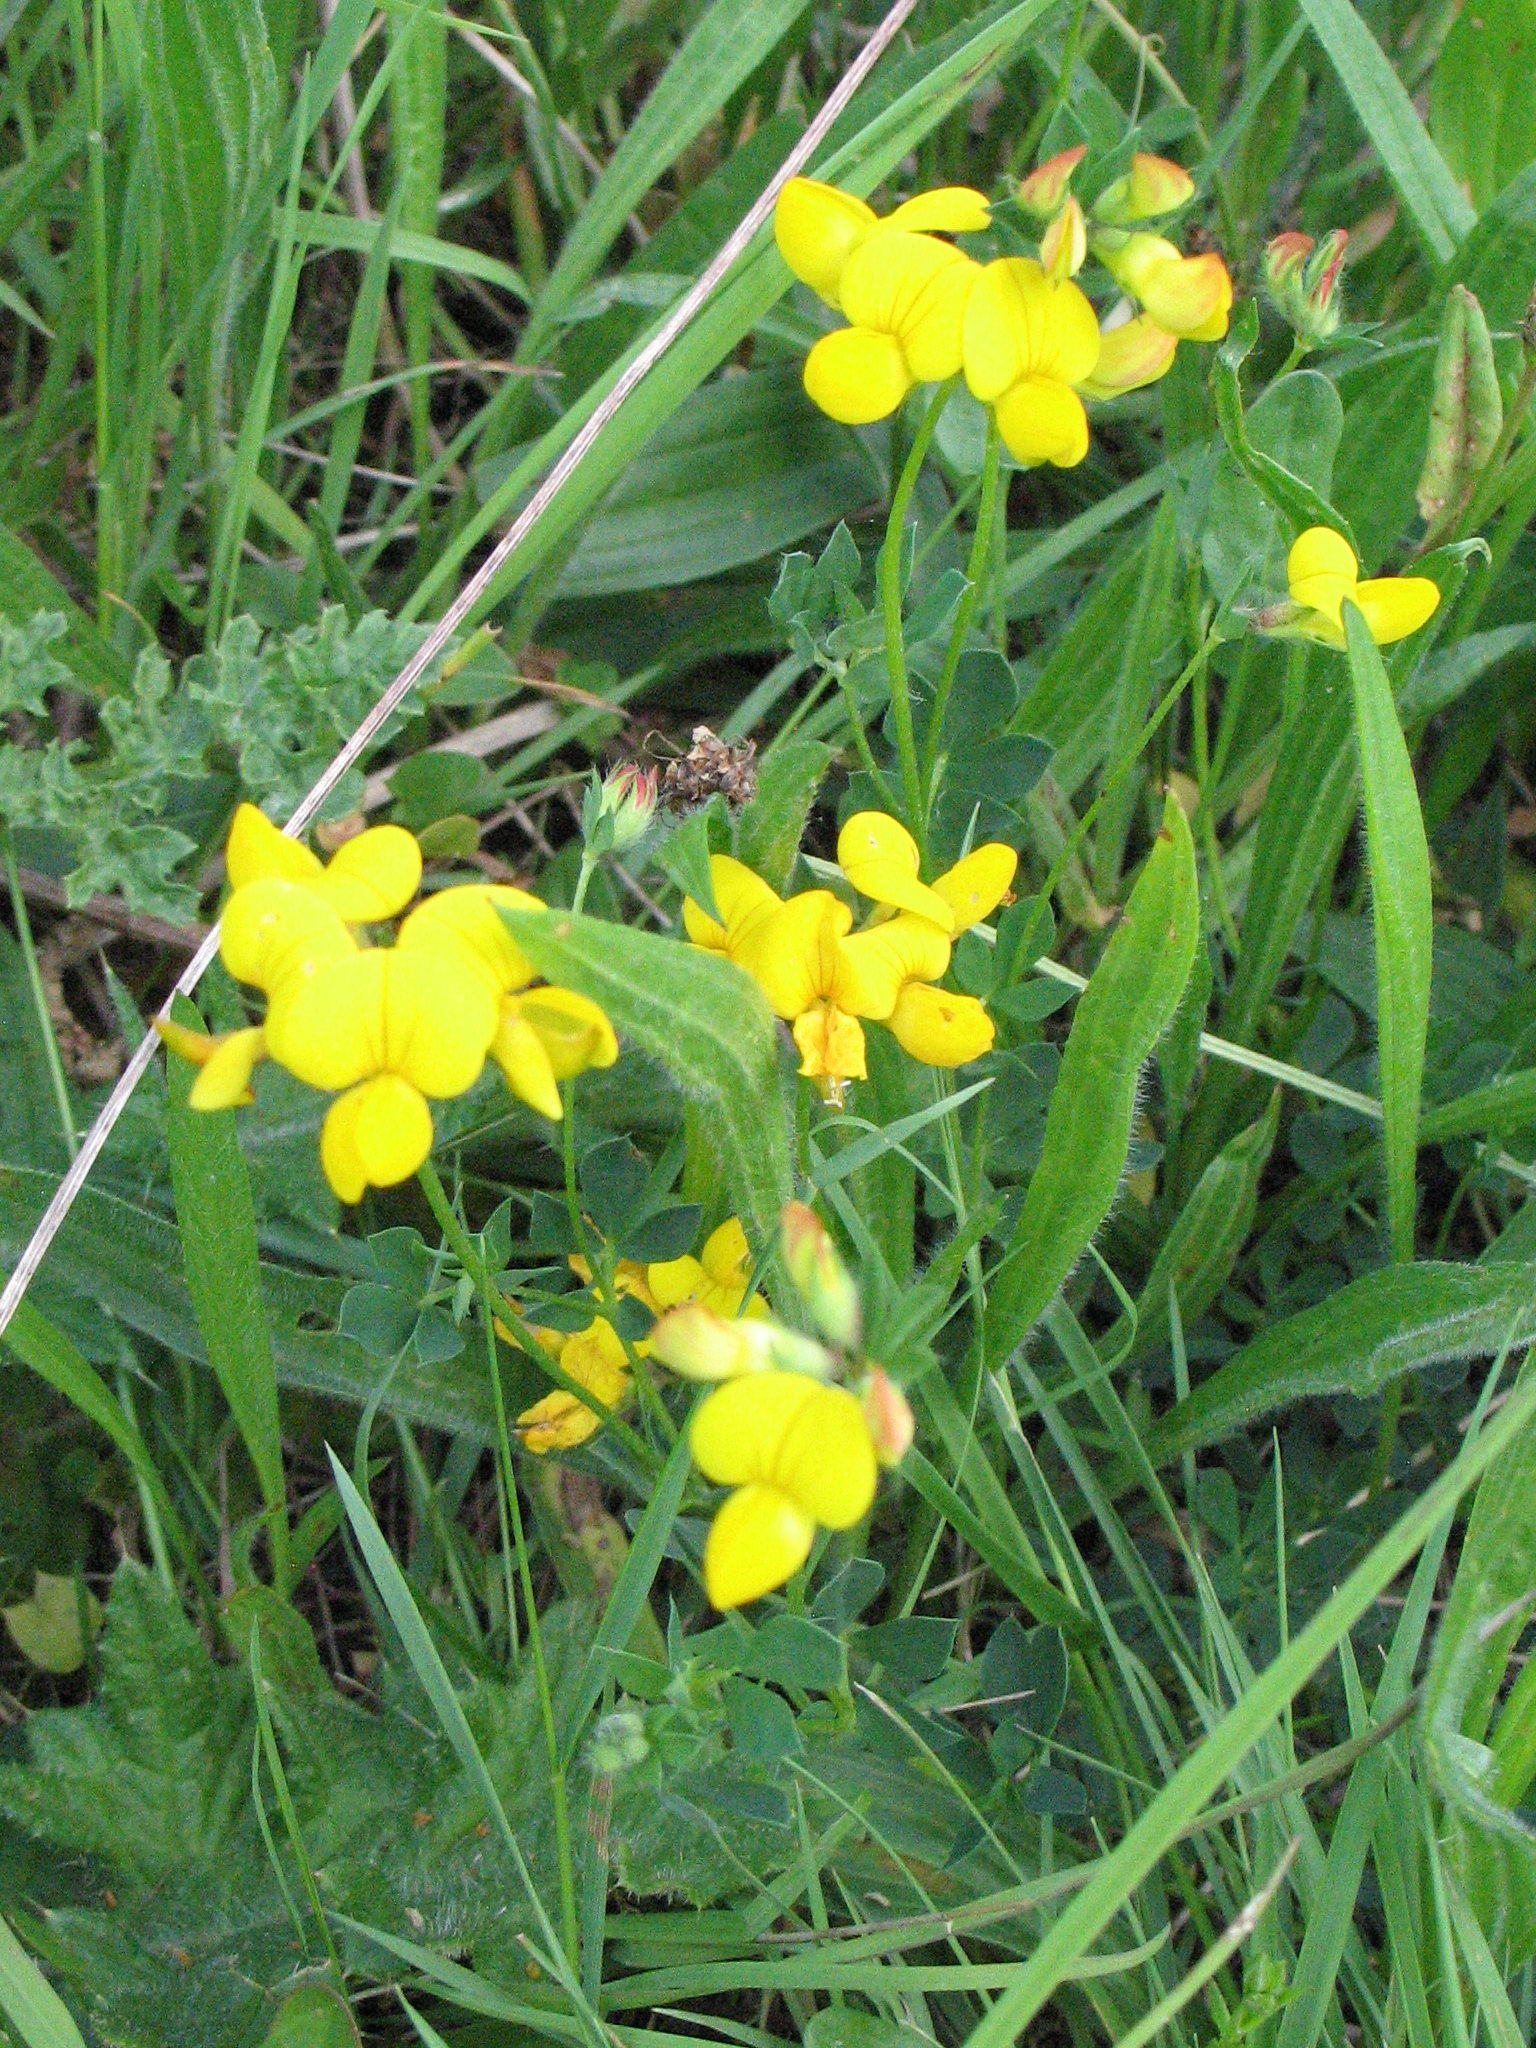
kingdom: Plantae
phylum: Tracheophyta
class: Magnoliopsida
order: Fabales
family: Fabaceae
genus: Lotus
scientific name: Lotus corniculatus
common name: Common bird's-foot-trefoil
